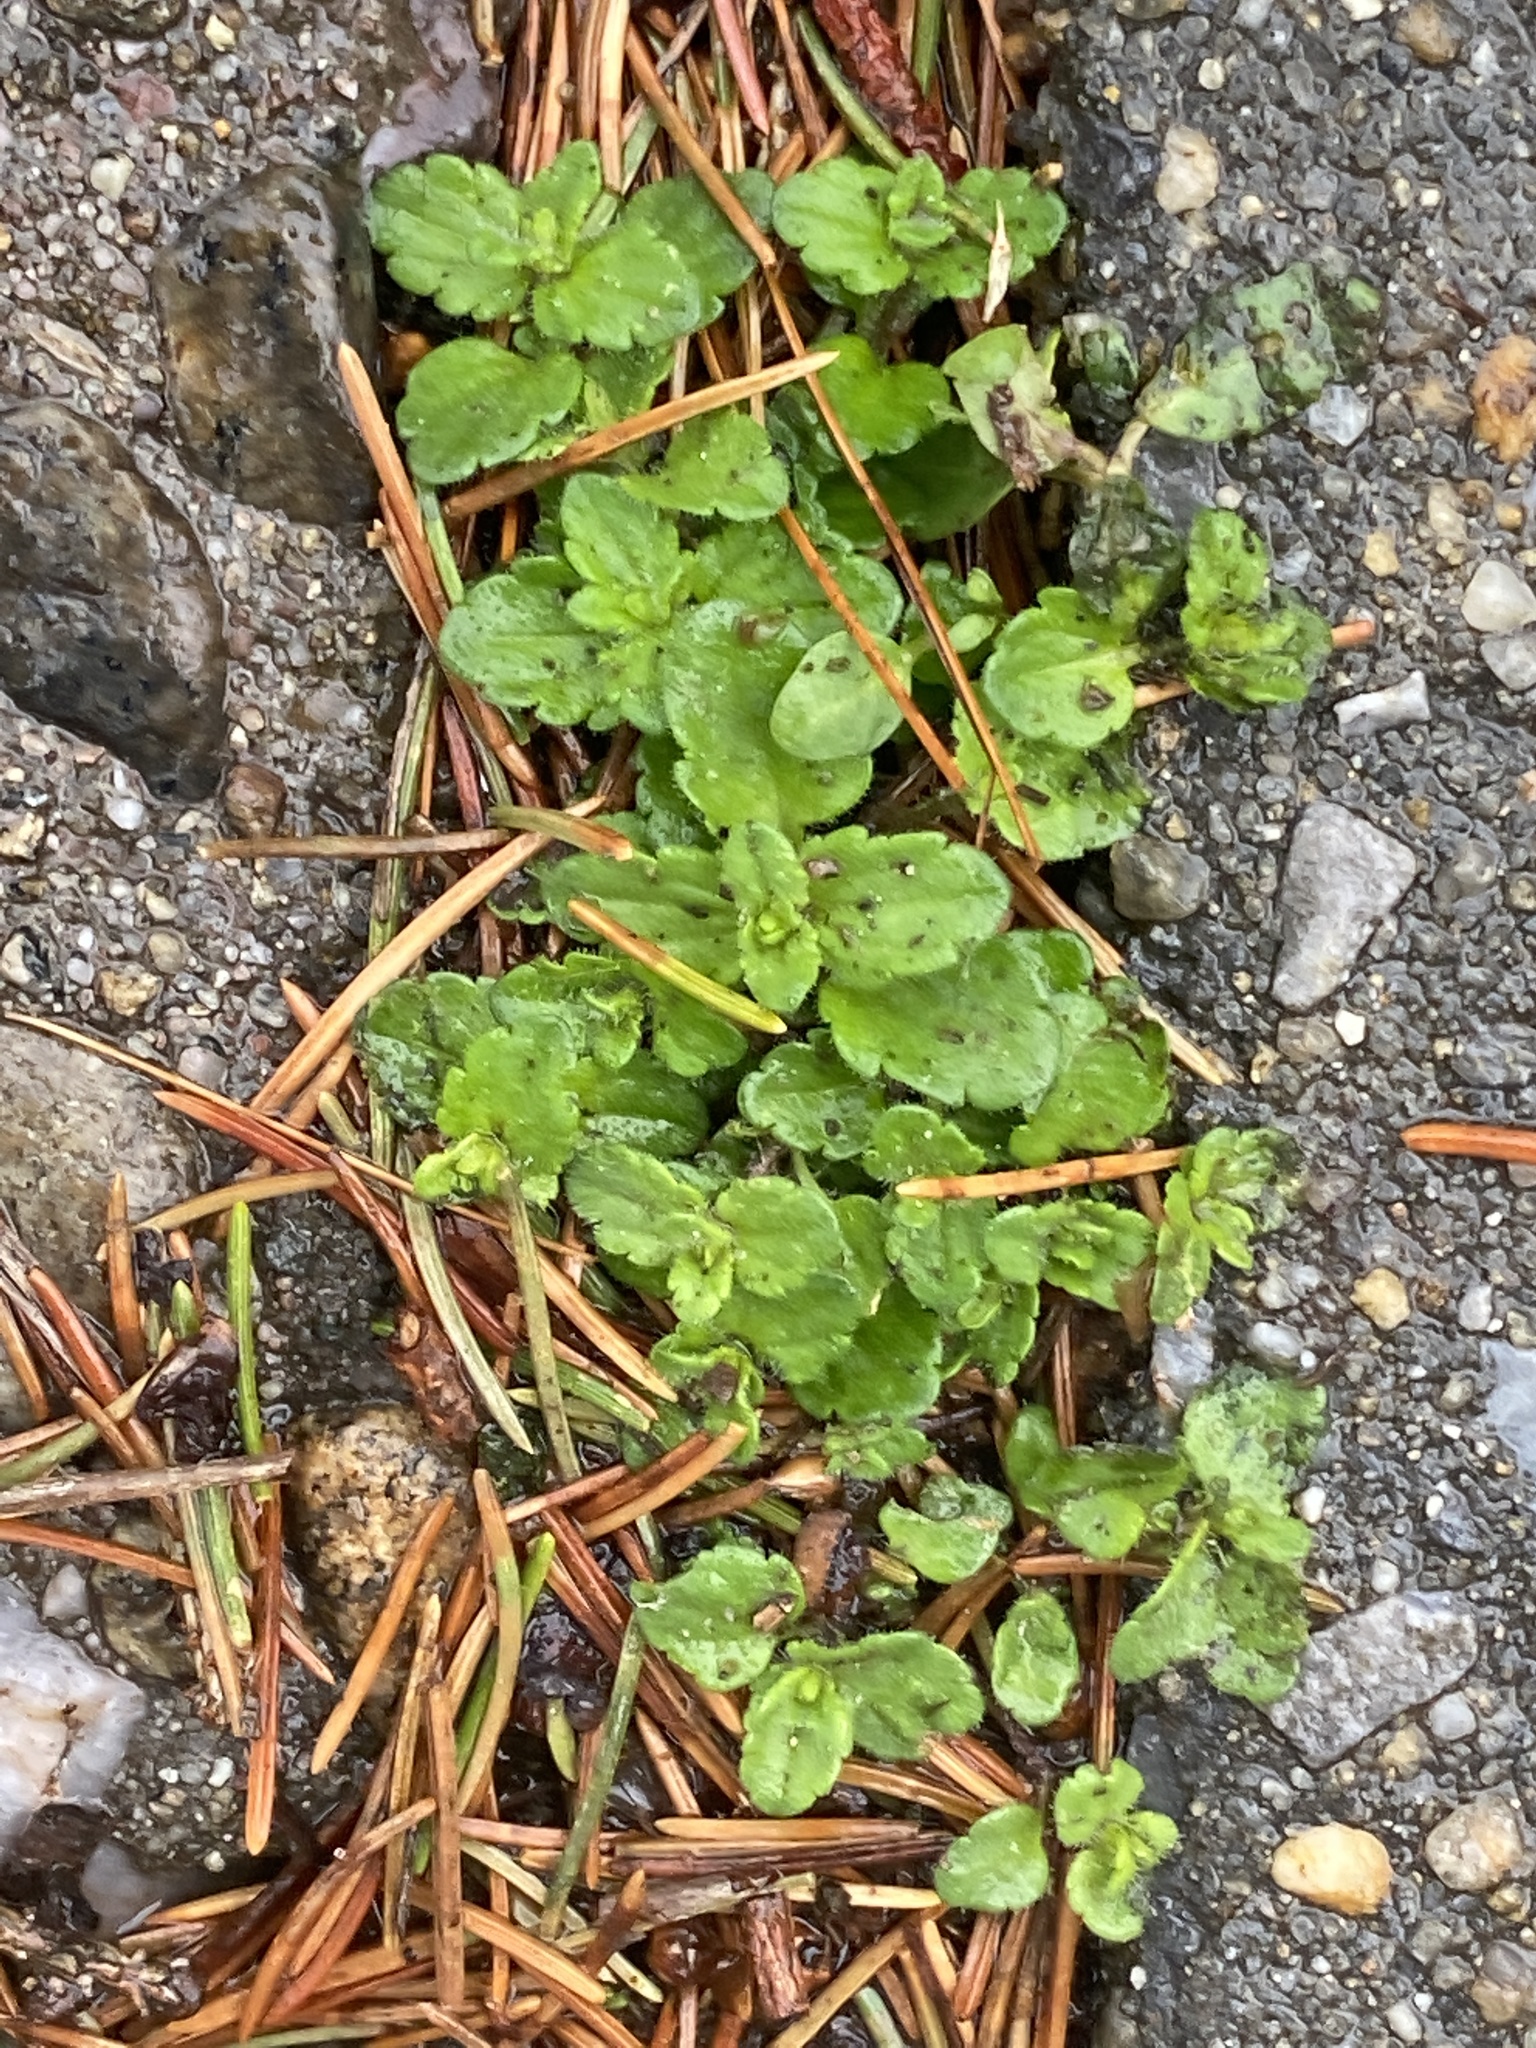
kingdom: Plantae
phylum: Tracheophyta
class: Magnoliopsida
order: Lamiales
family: Plantaginaceae
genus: Veronica
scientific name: Veronica arvensis
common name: Corn speedwell
